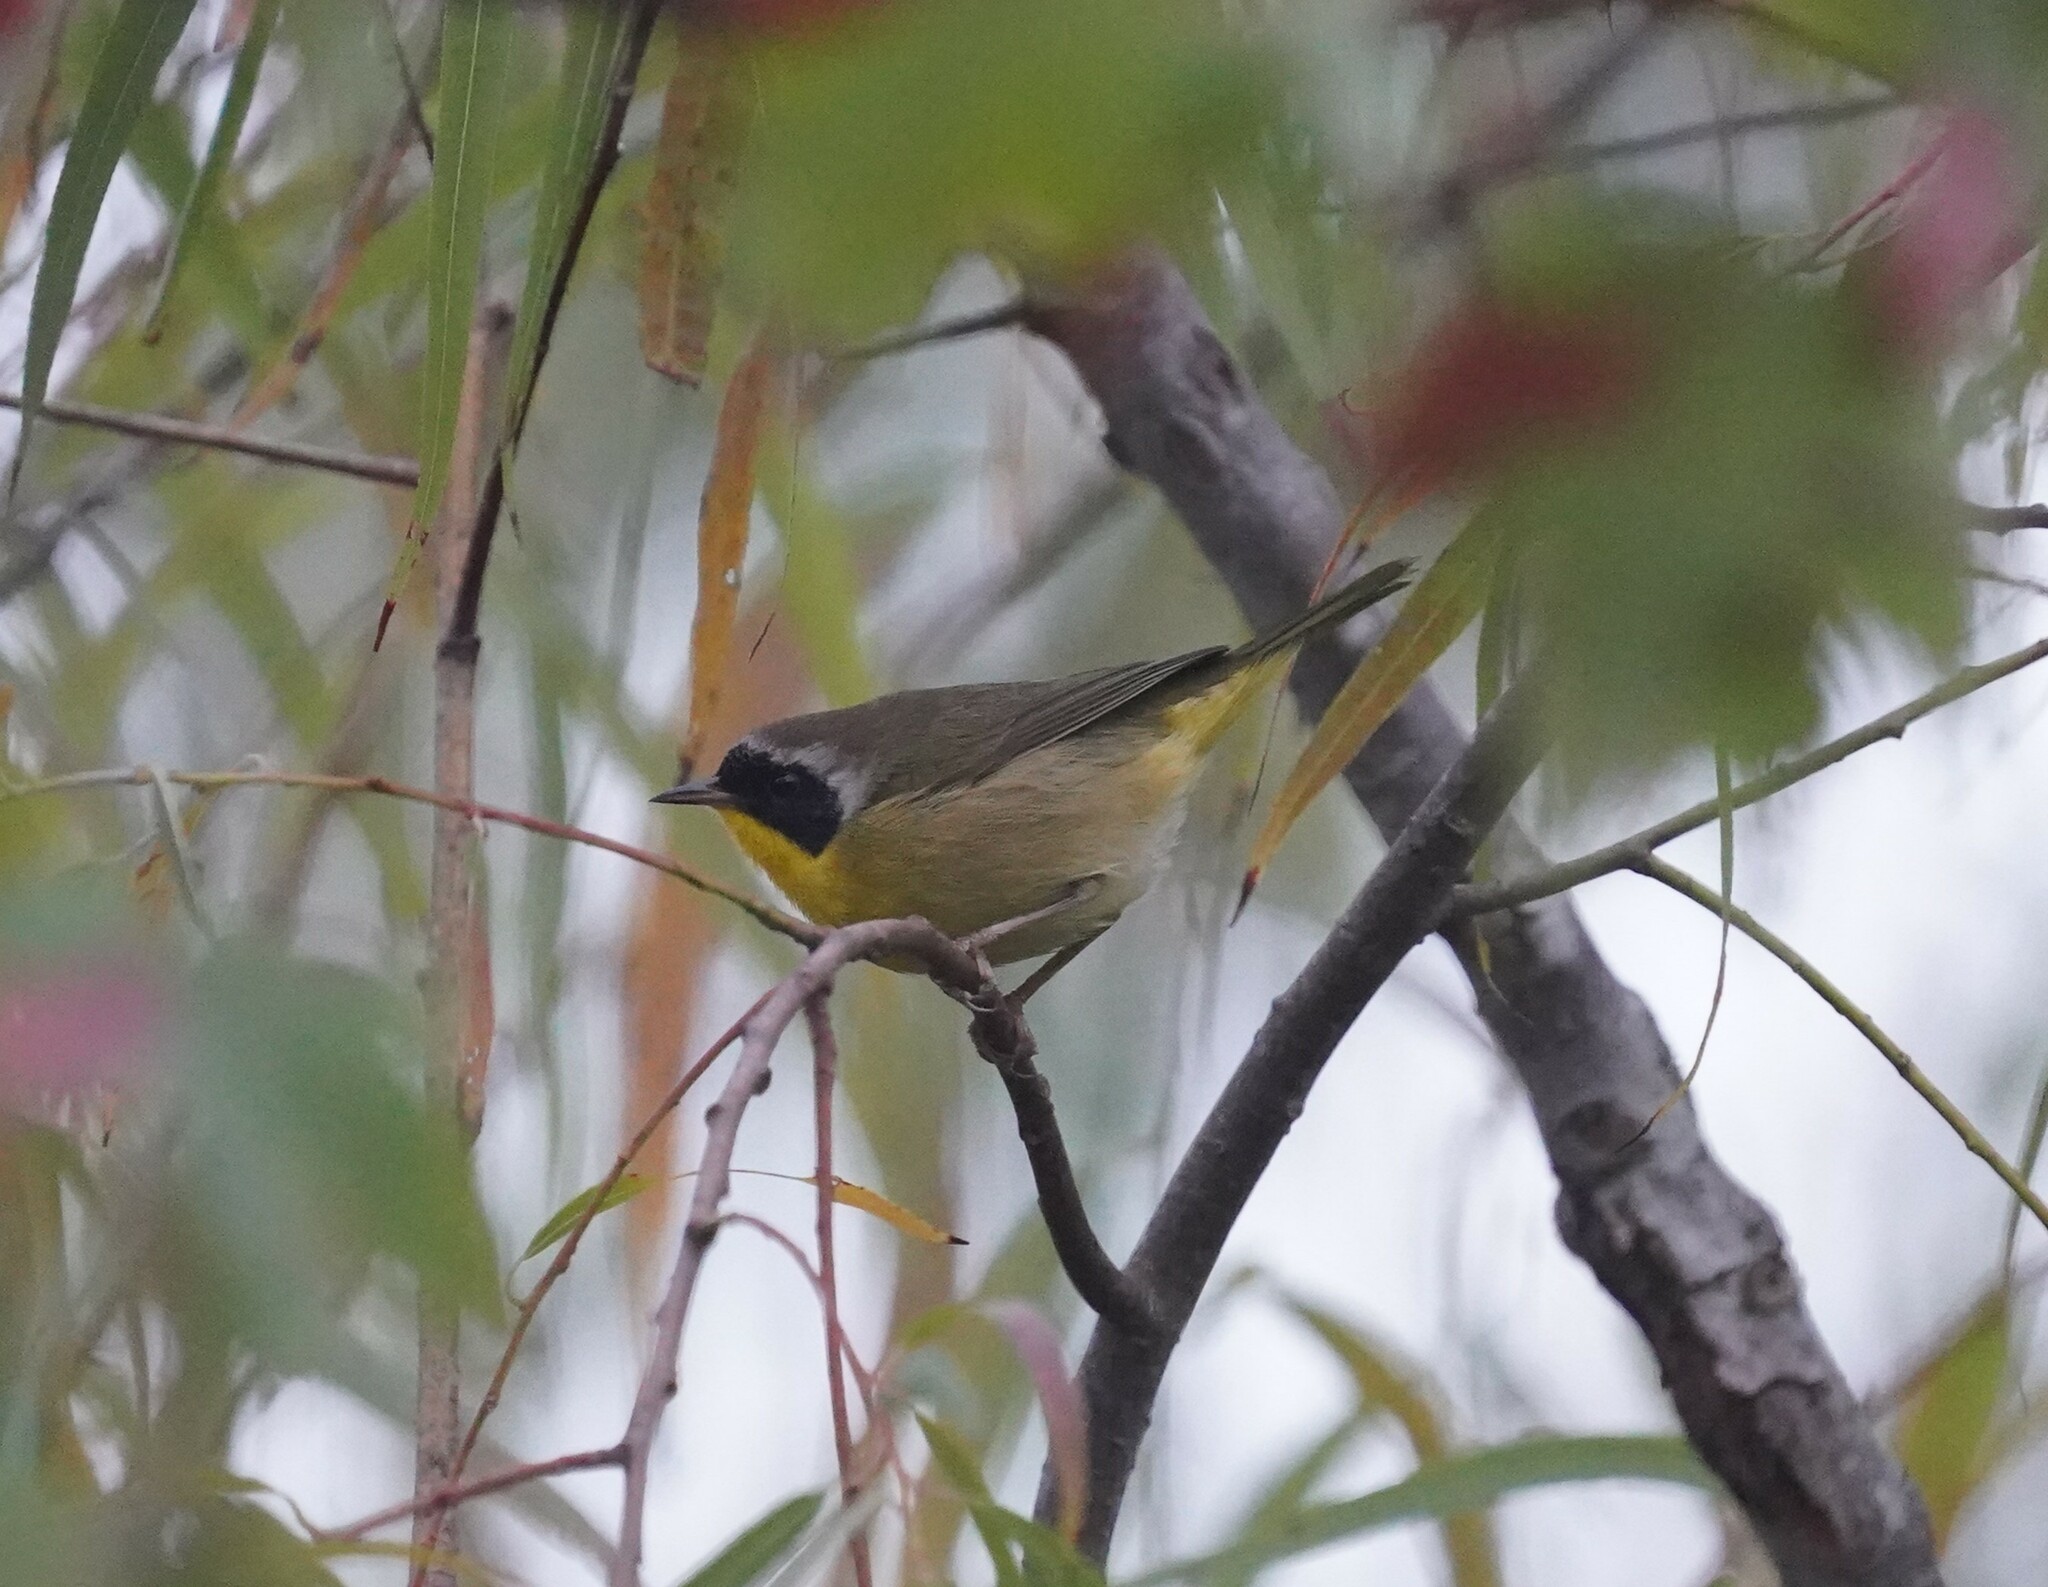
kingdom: Animalia
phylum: Chordata
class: Aves
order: Passeriformes
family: Parulidae
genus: Geothlypis
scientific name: Geothlypis trichas
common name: Common yellowthroat
